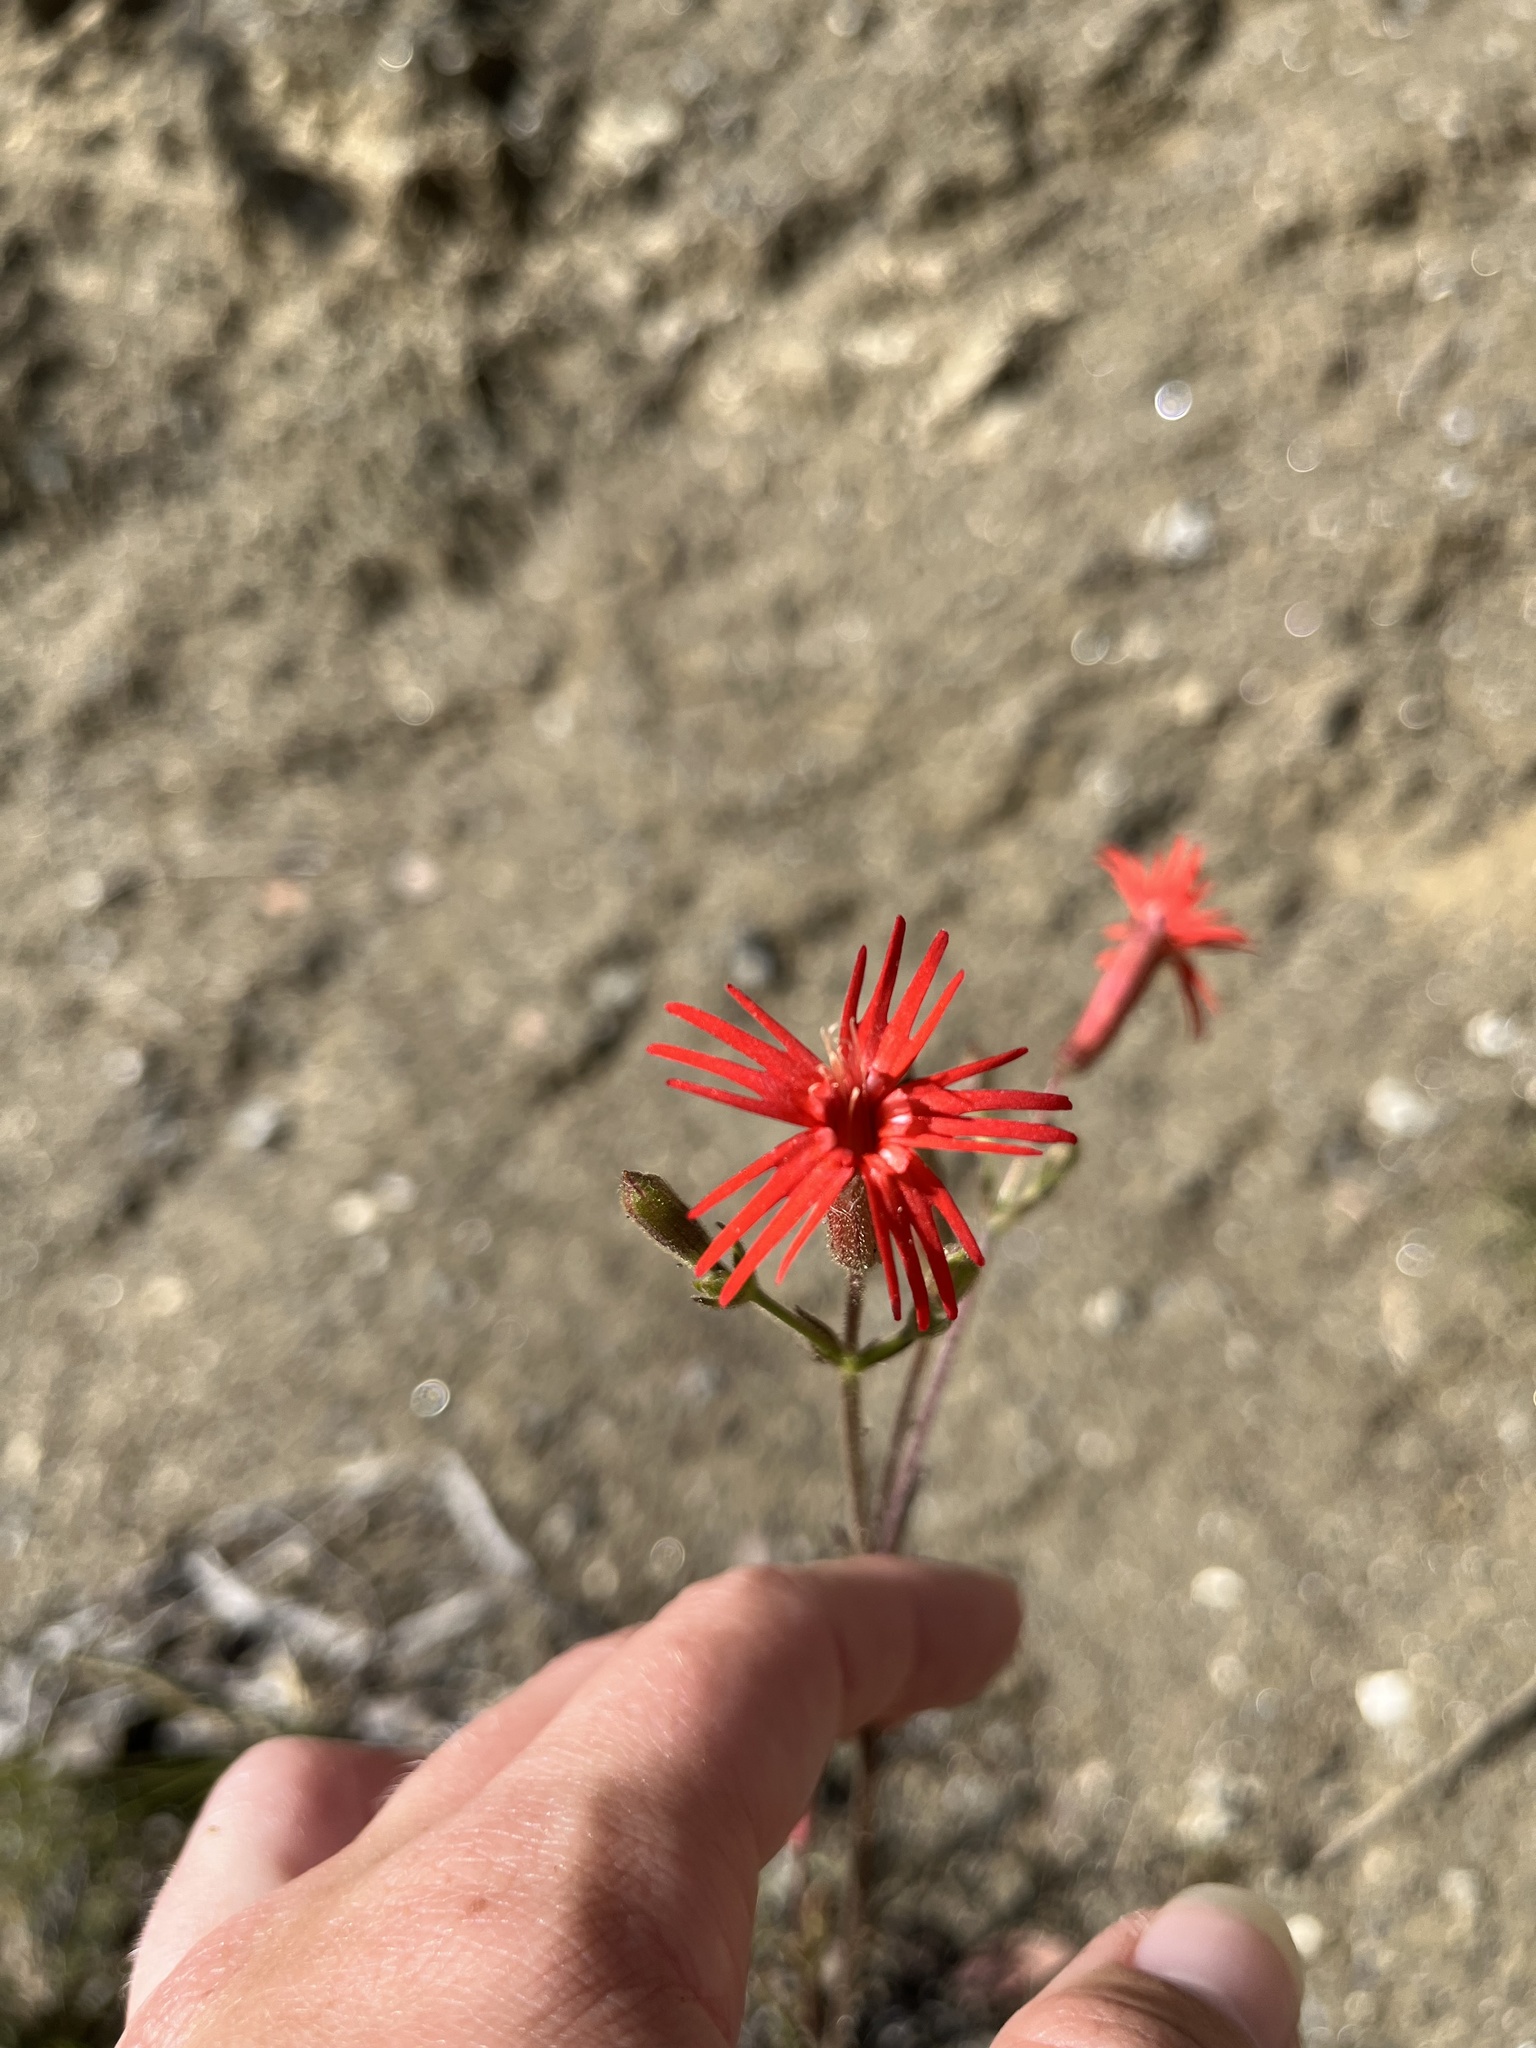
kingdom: Plantae
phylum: Tracheophyta
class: Magnoliopsida
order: Caryophyllales
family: Caryophyllaceae
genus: Silene
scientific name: Silene laciniata
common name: Indian-pink
